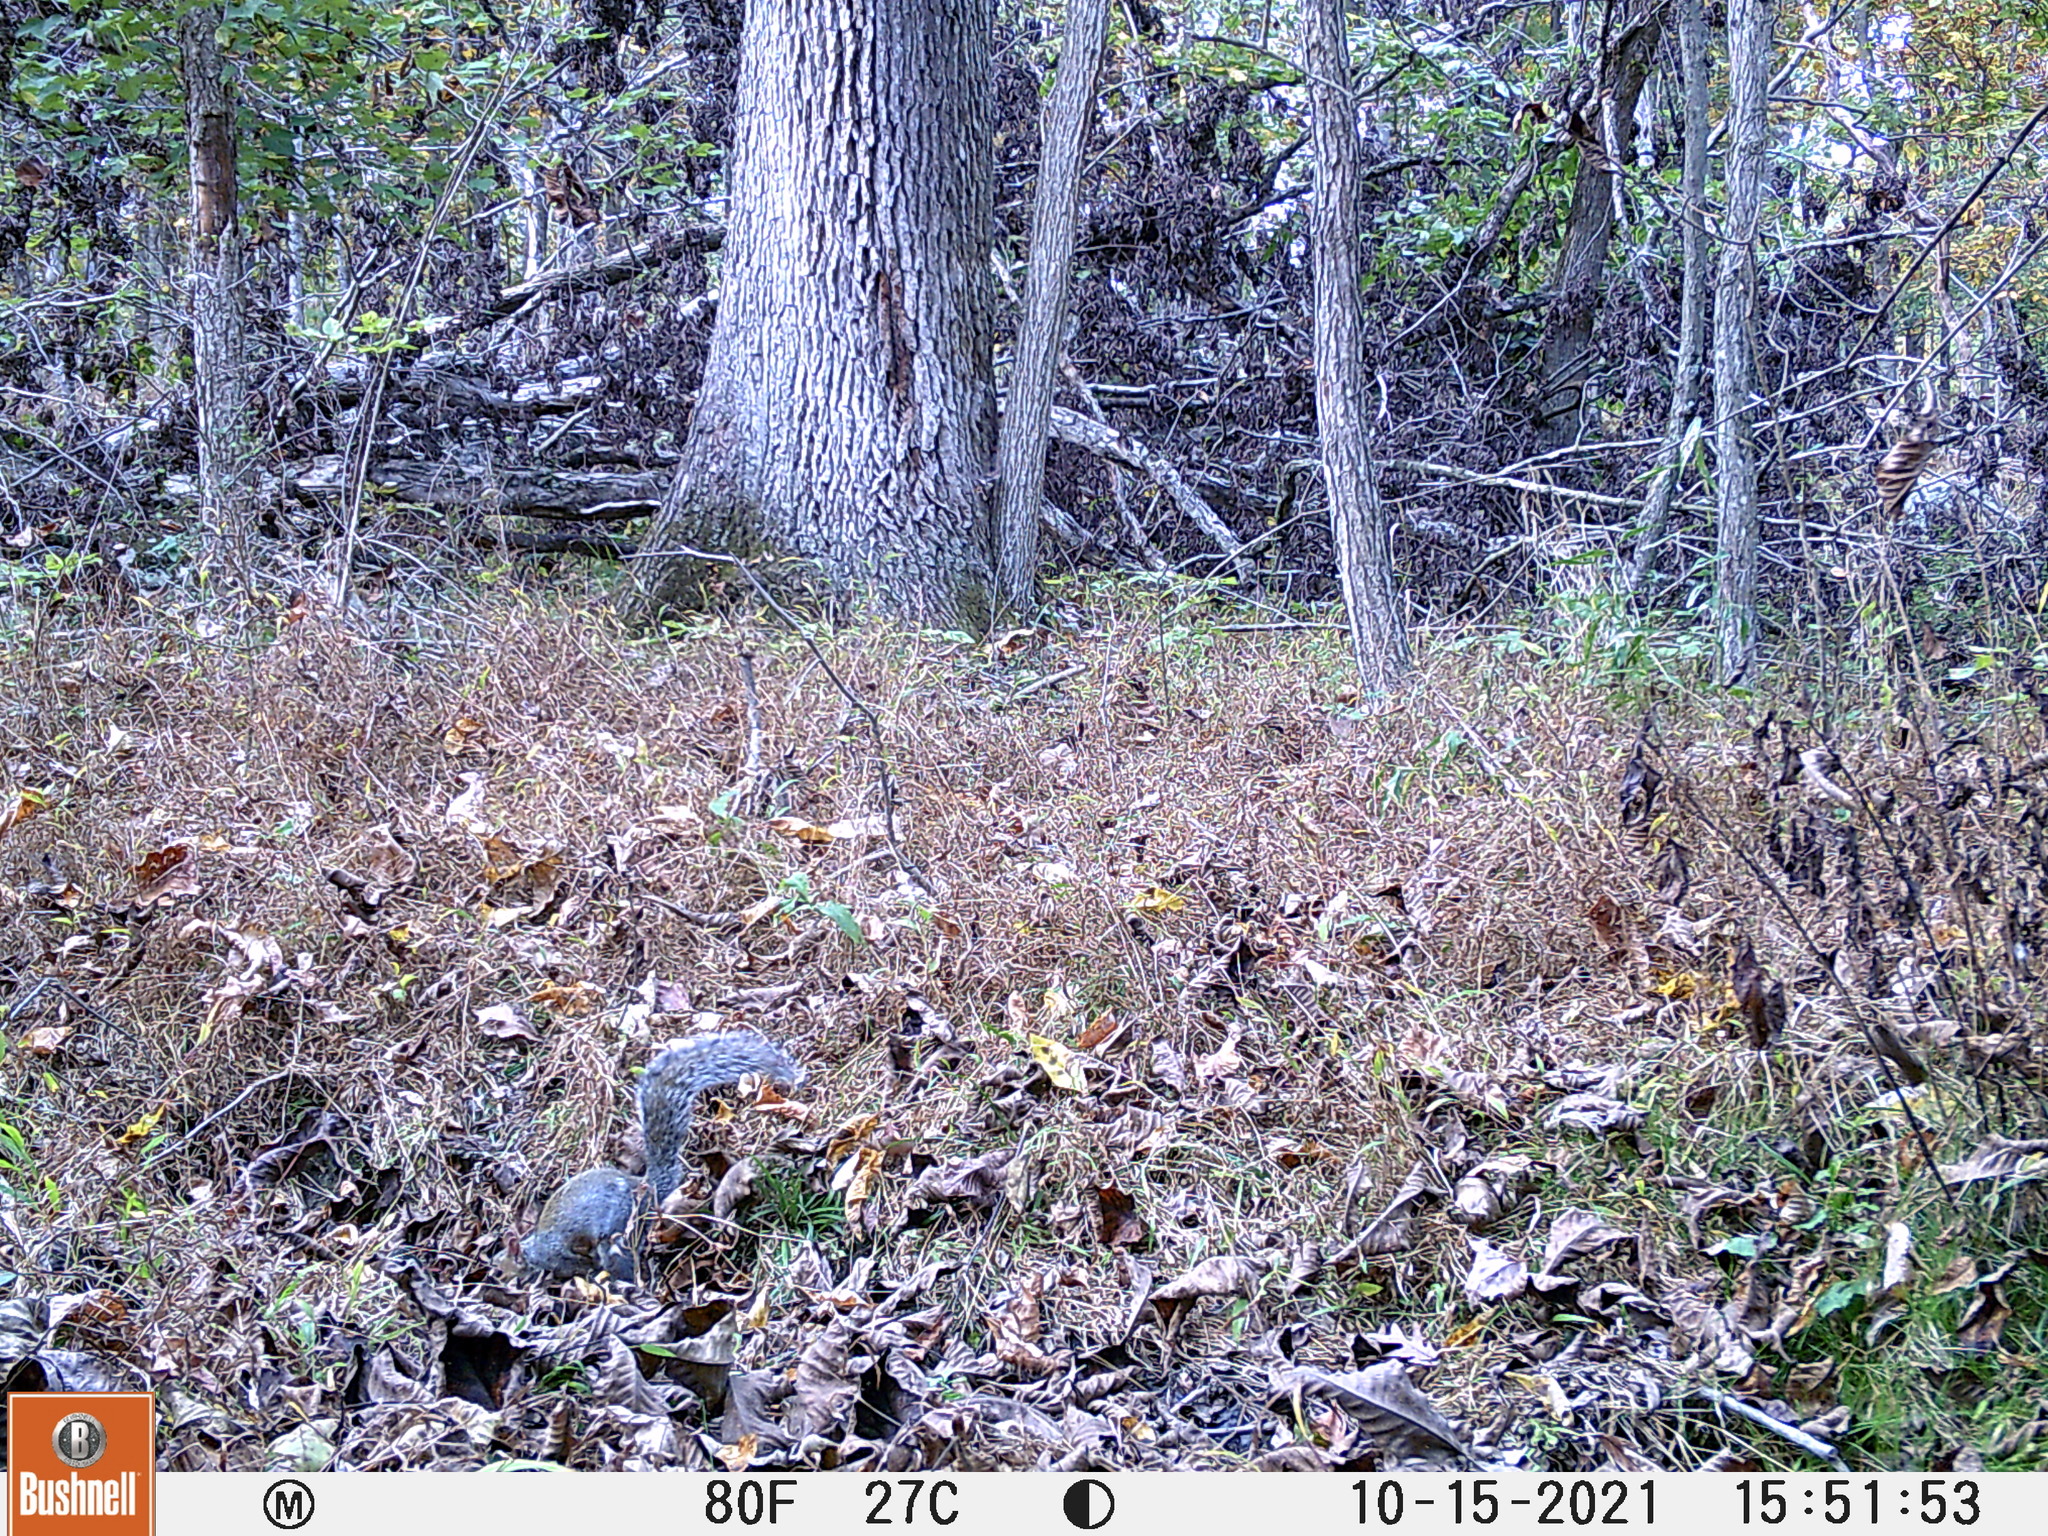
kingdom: Animalia
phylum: Chordata
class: Mammalia
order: Rodentia
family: Sciuridae
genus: Sciurus
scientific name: Sciurus carolinensis
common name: Eastern gray squirrel
